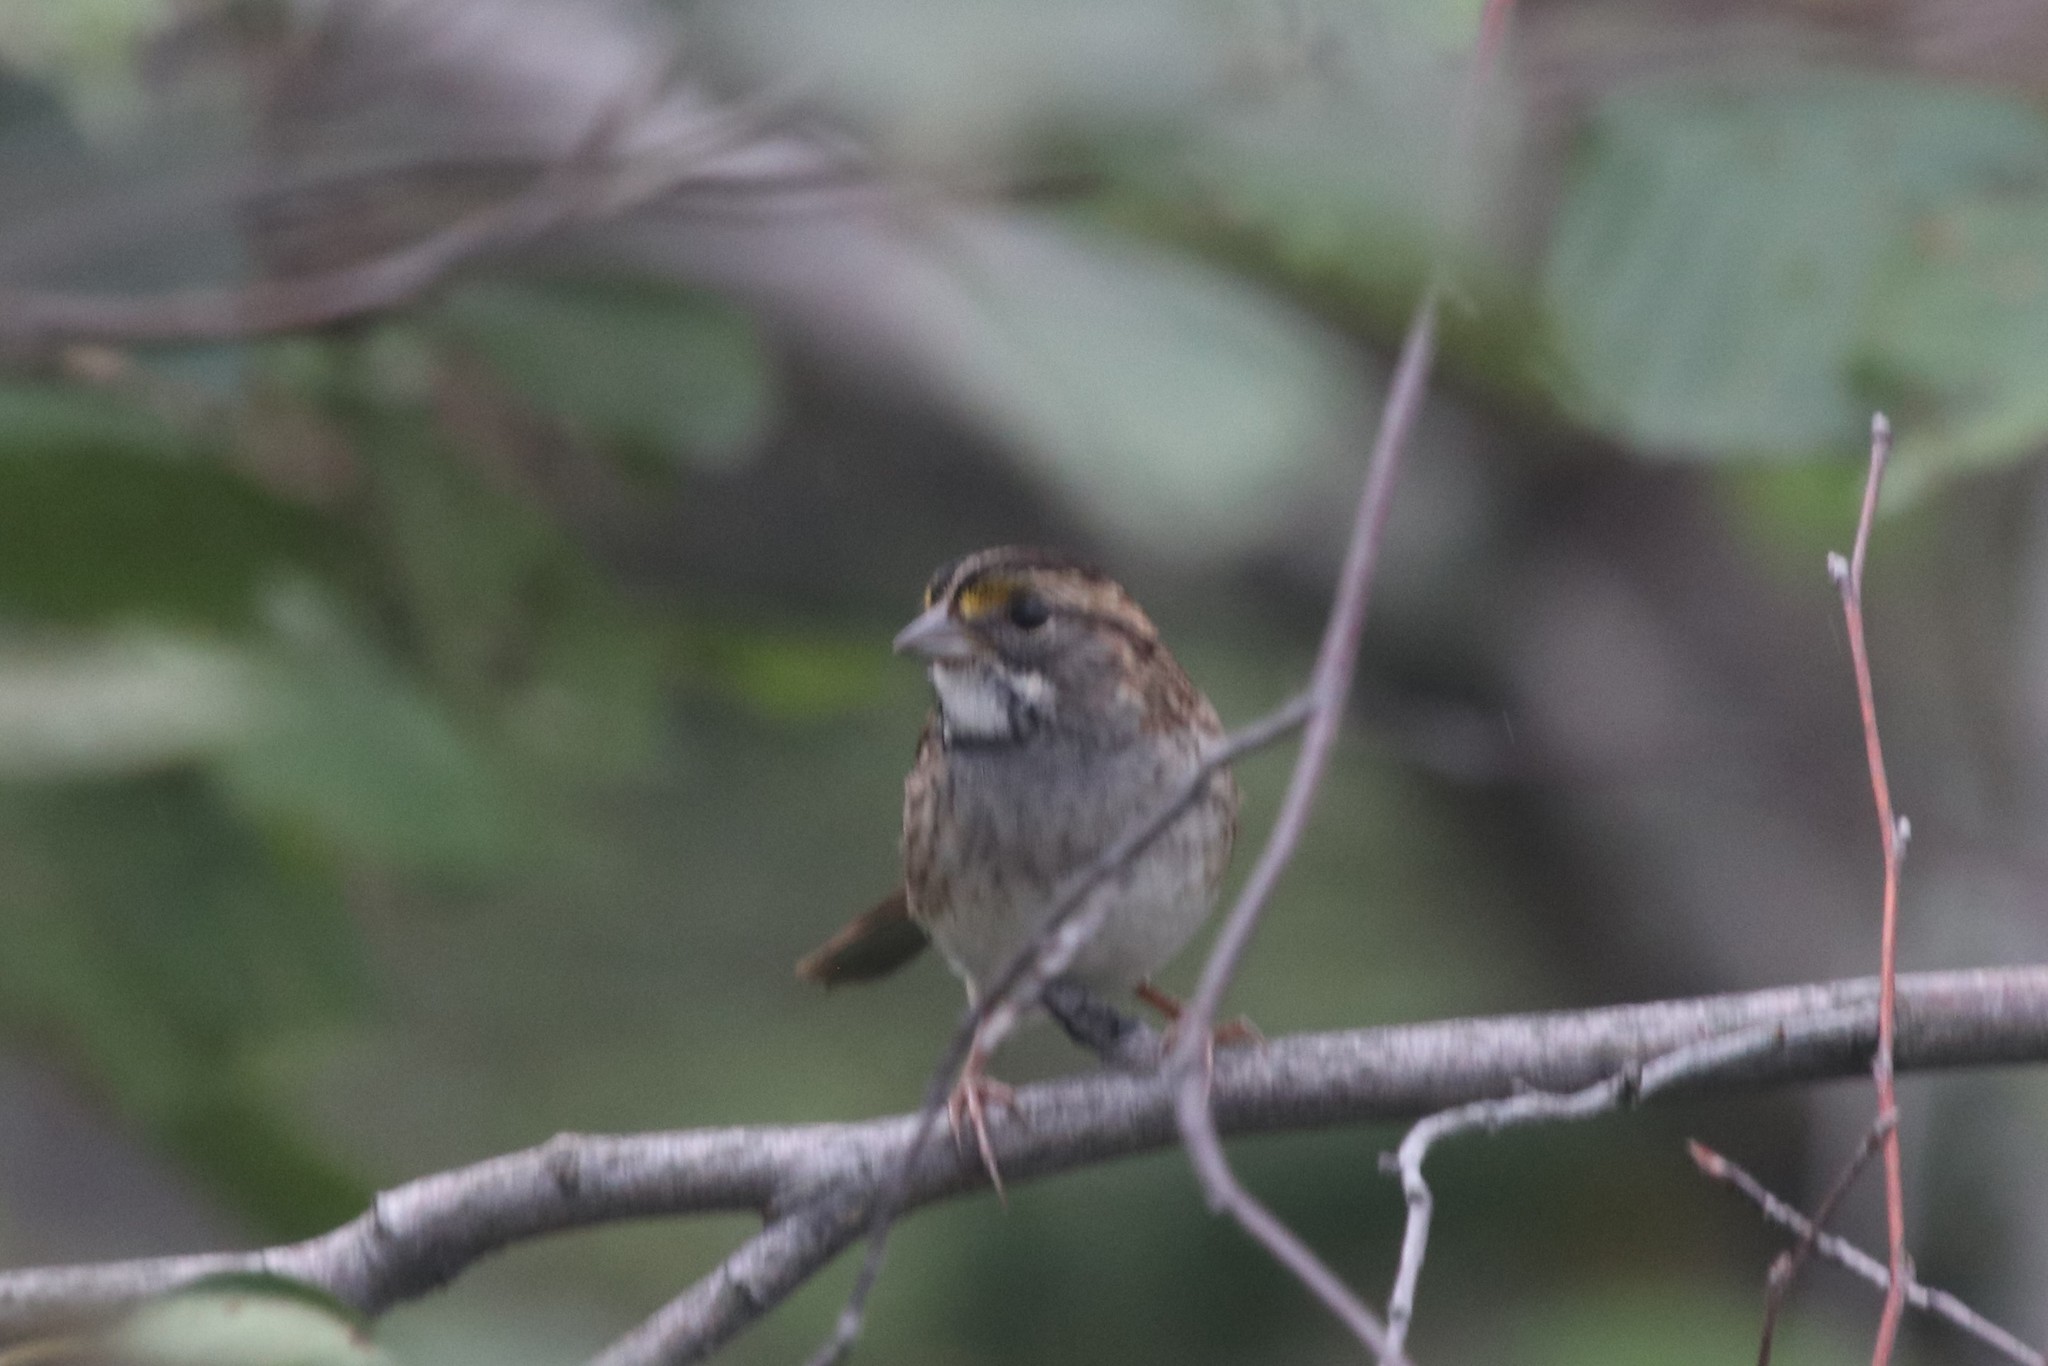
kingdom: Animalia
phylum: Chordata
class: Aves
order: Passeriformes
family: Passerellidae
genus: Zonotrichia
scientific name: Zonotrichia albicollis
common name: White-throated sparrow
